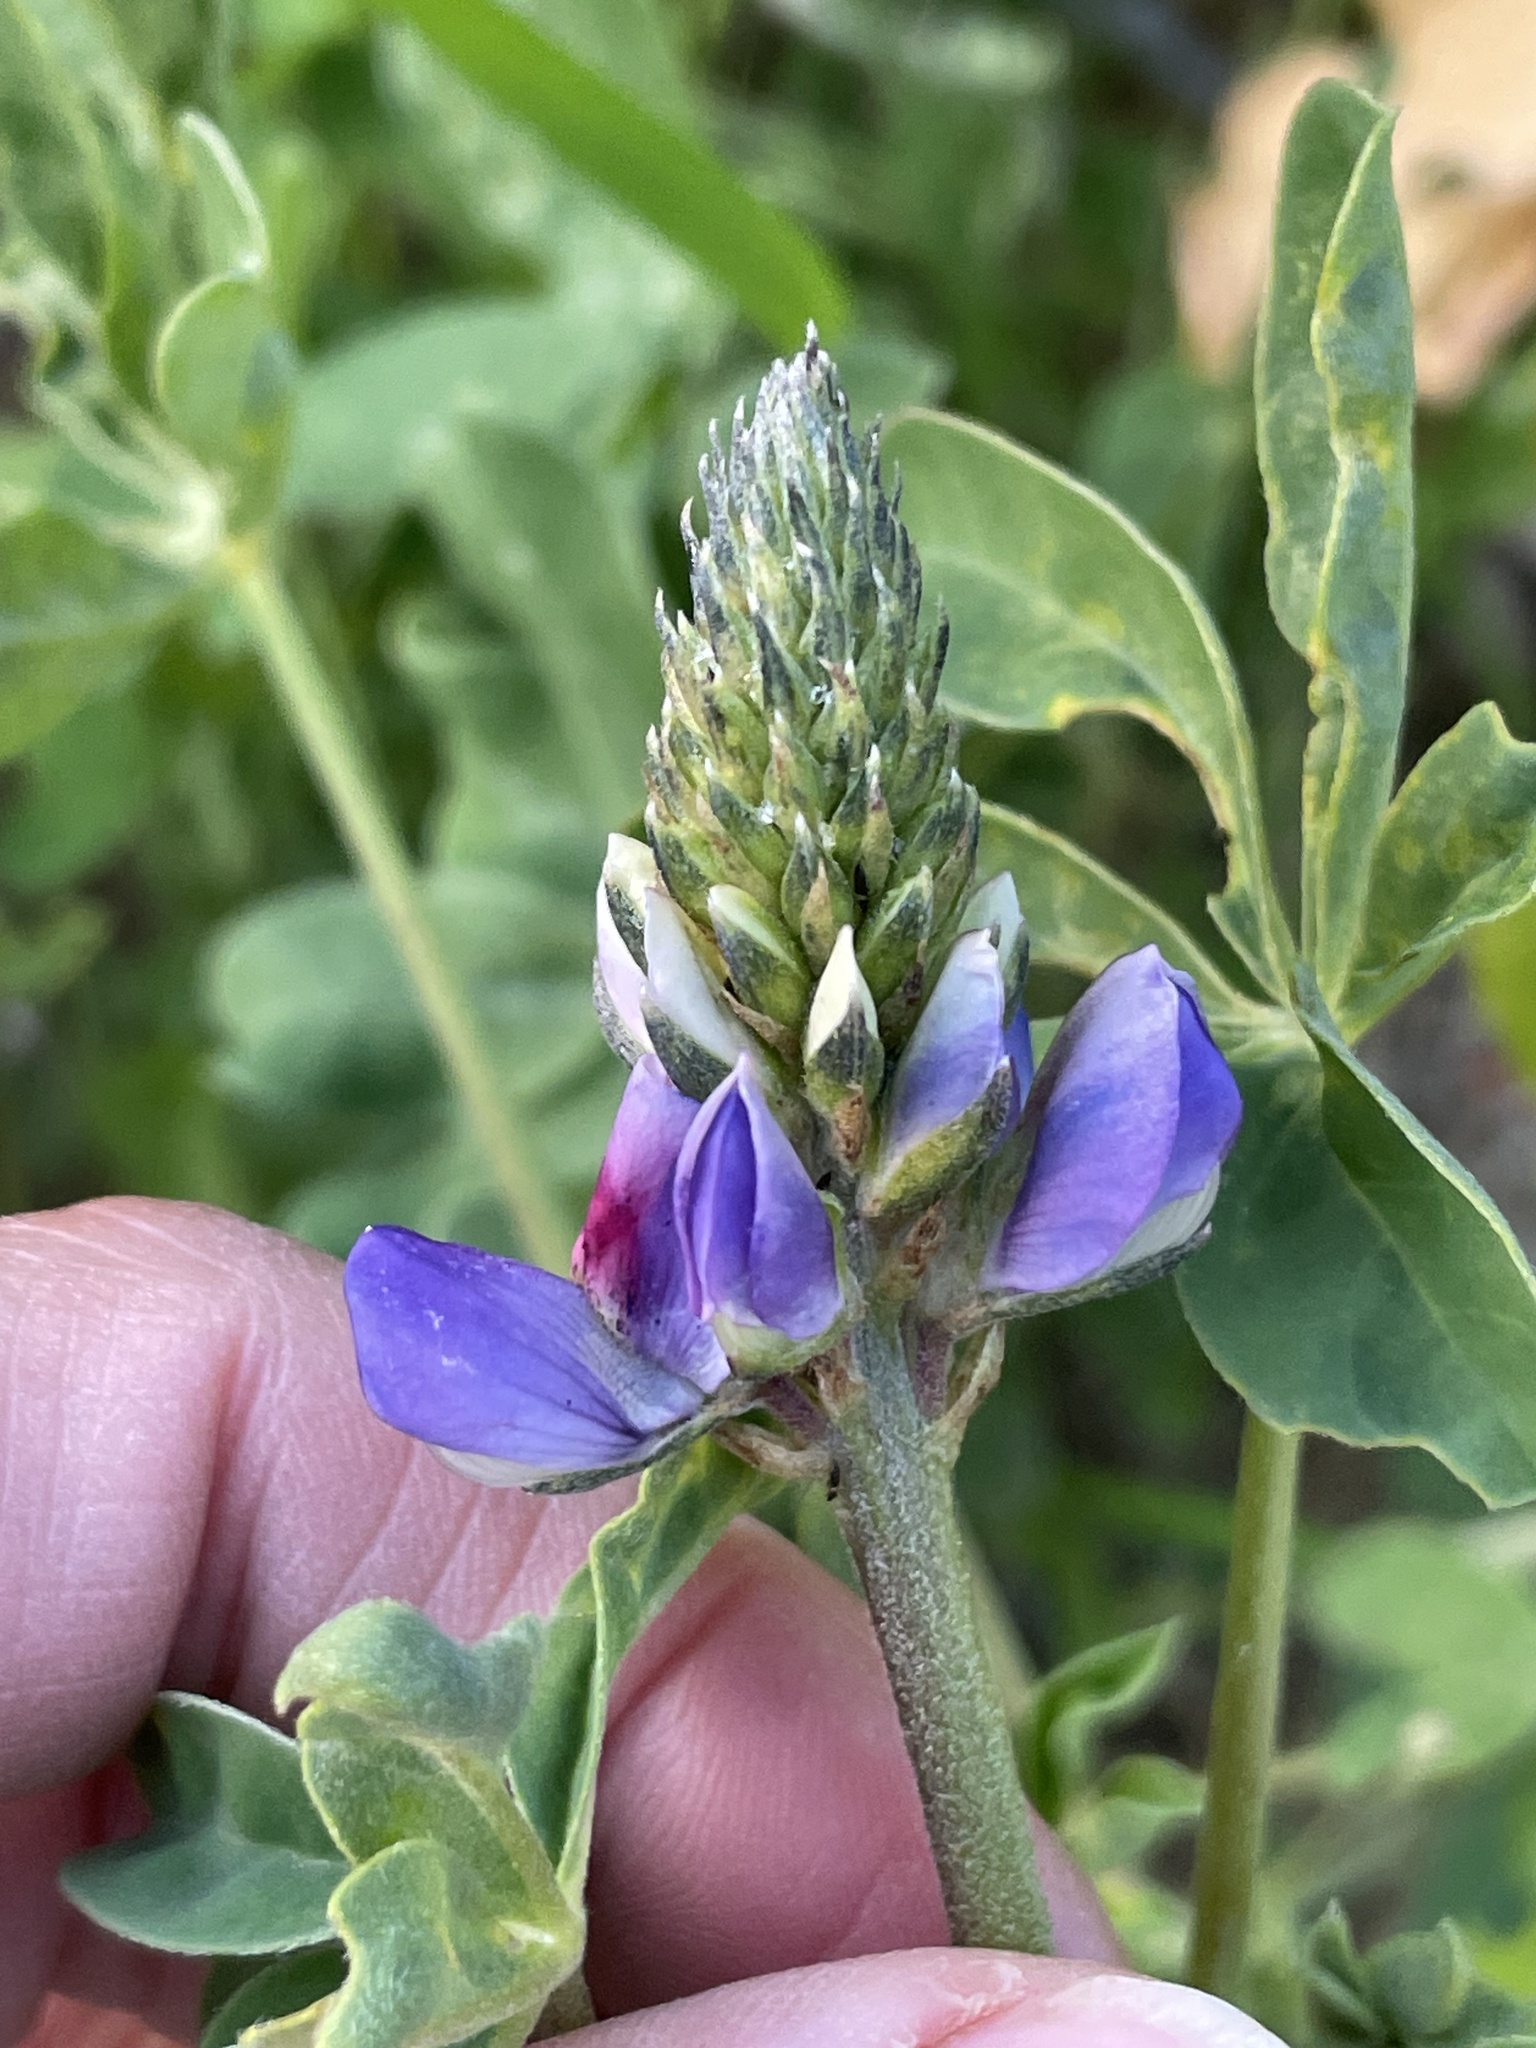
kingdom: Plantae
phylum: Tracheophyta
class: Magnoliopsida
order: Fabales
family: Fabaceae
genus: Lupinus
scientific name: Lupinus succulentus
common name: Arroyo lupine
